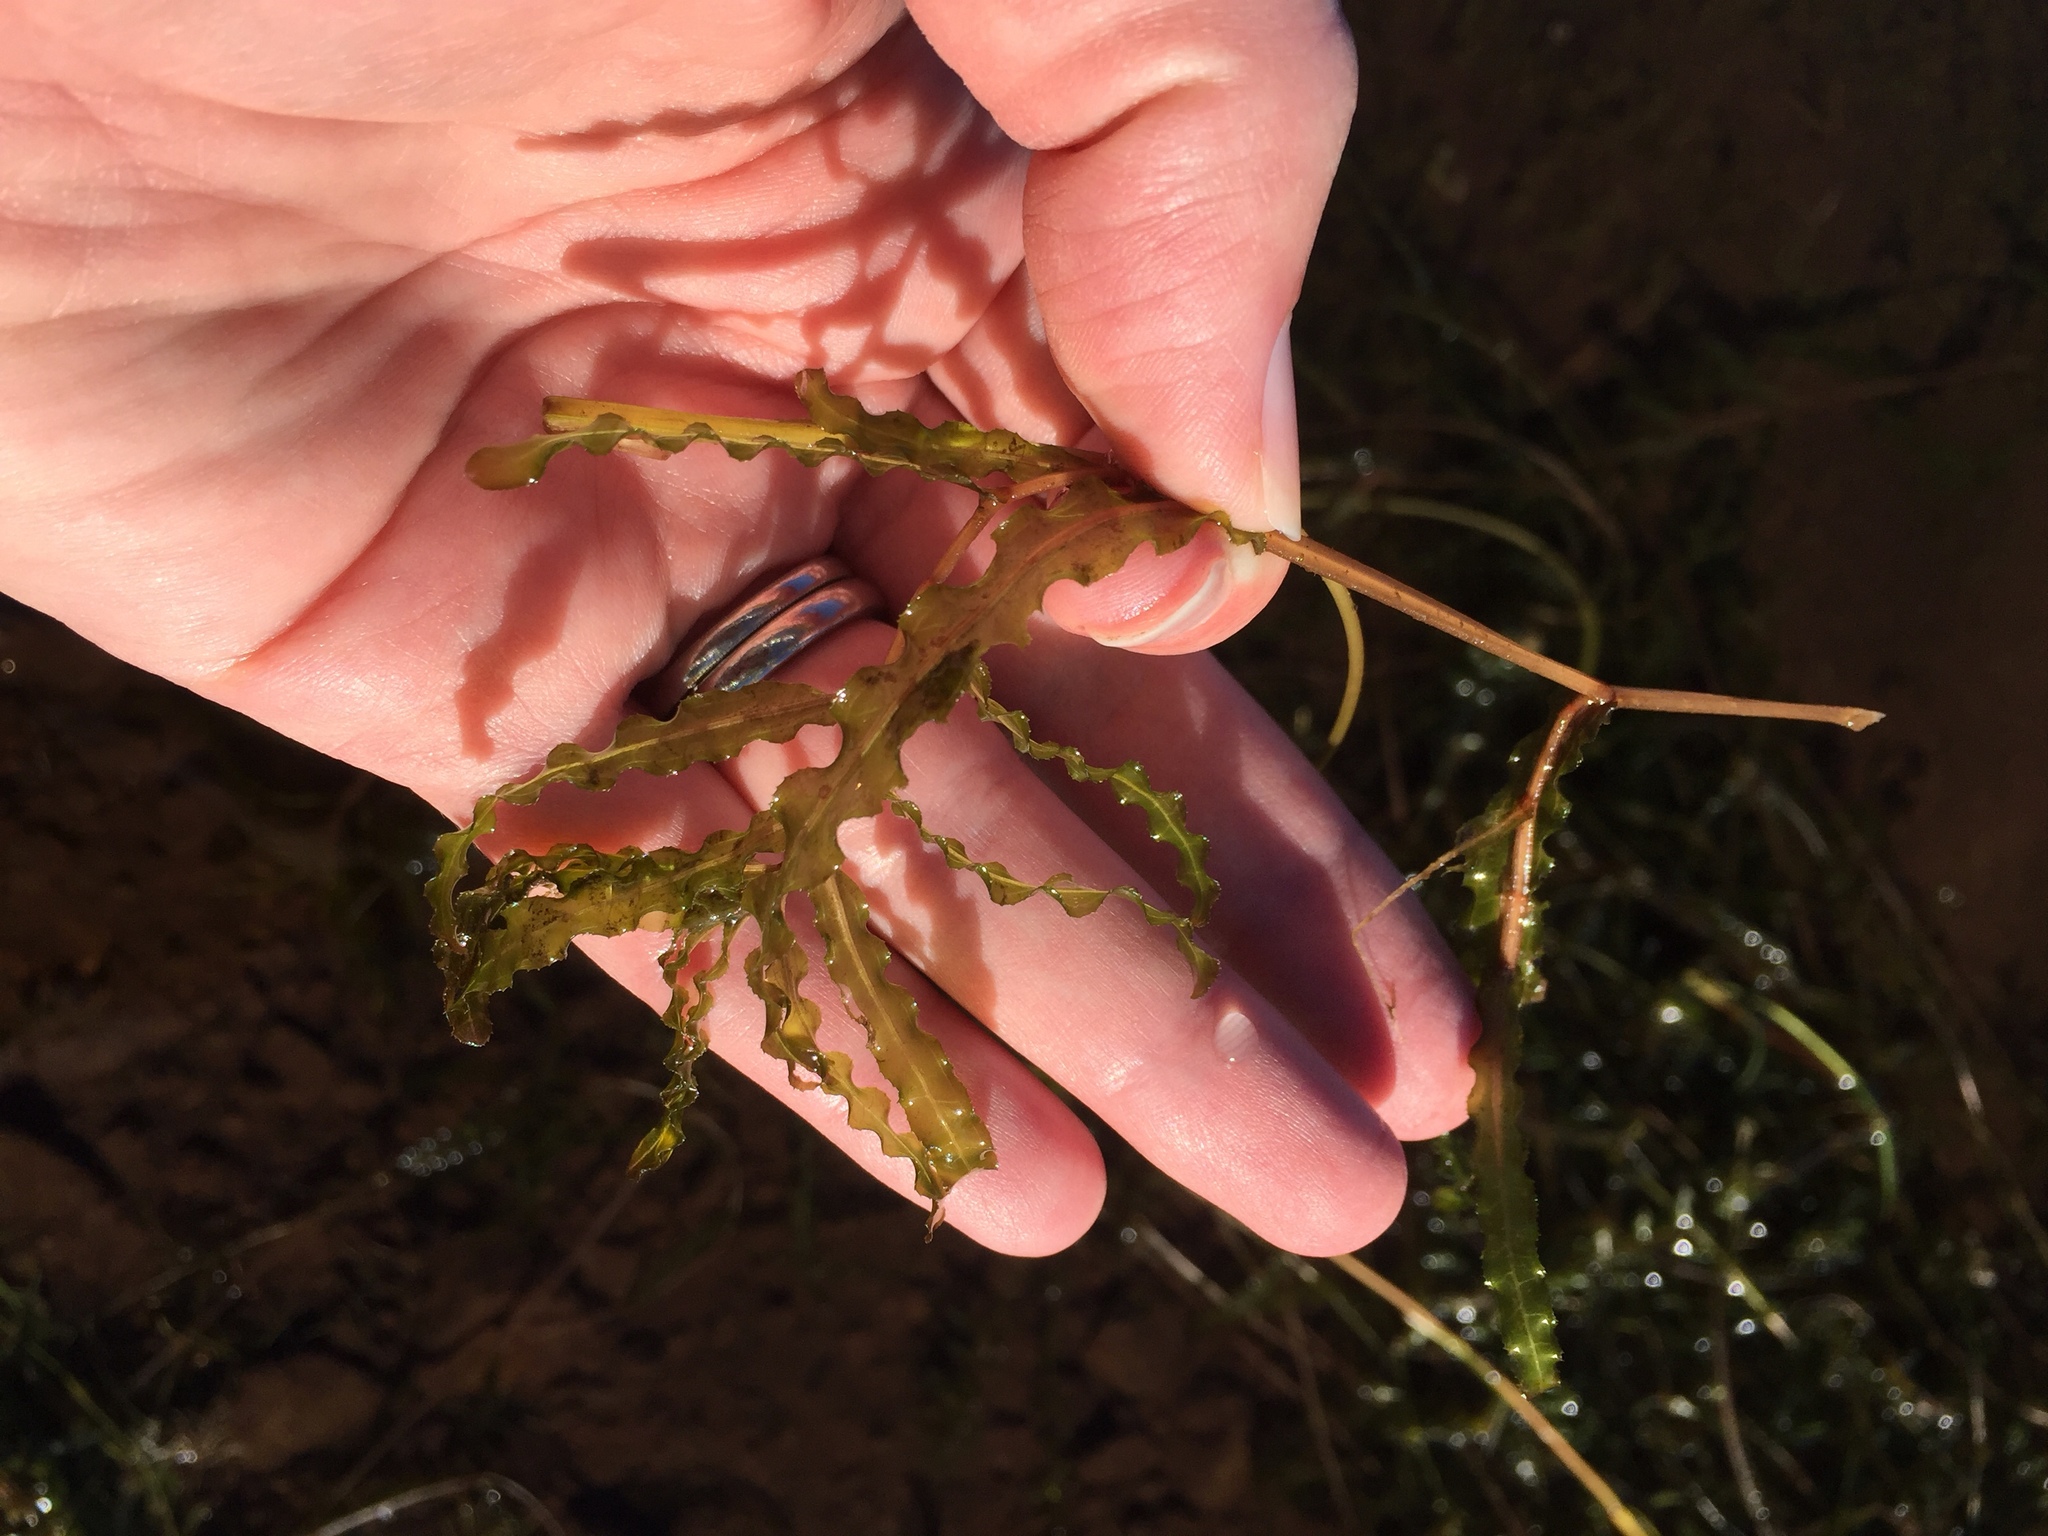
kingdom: Plantae
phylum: Tracheophyta
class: Liliopsida
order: Alismatales
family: Potamogetonaceae
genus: Potamogeton
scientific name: Potamogeton crispus
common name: Curled pondweed
